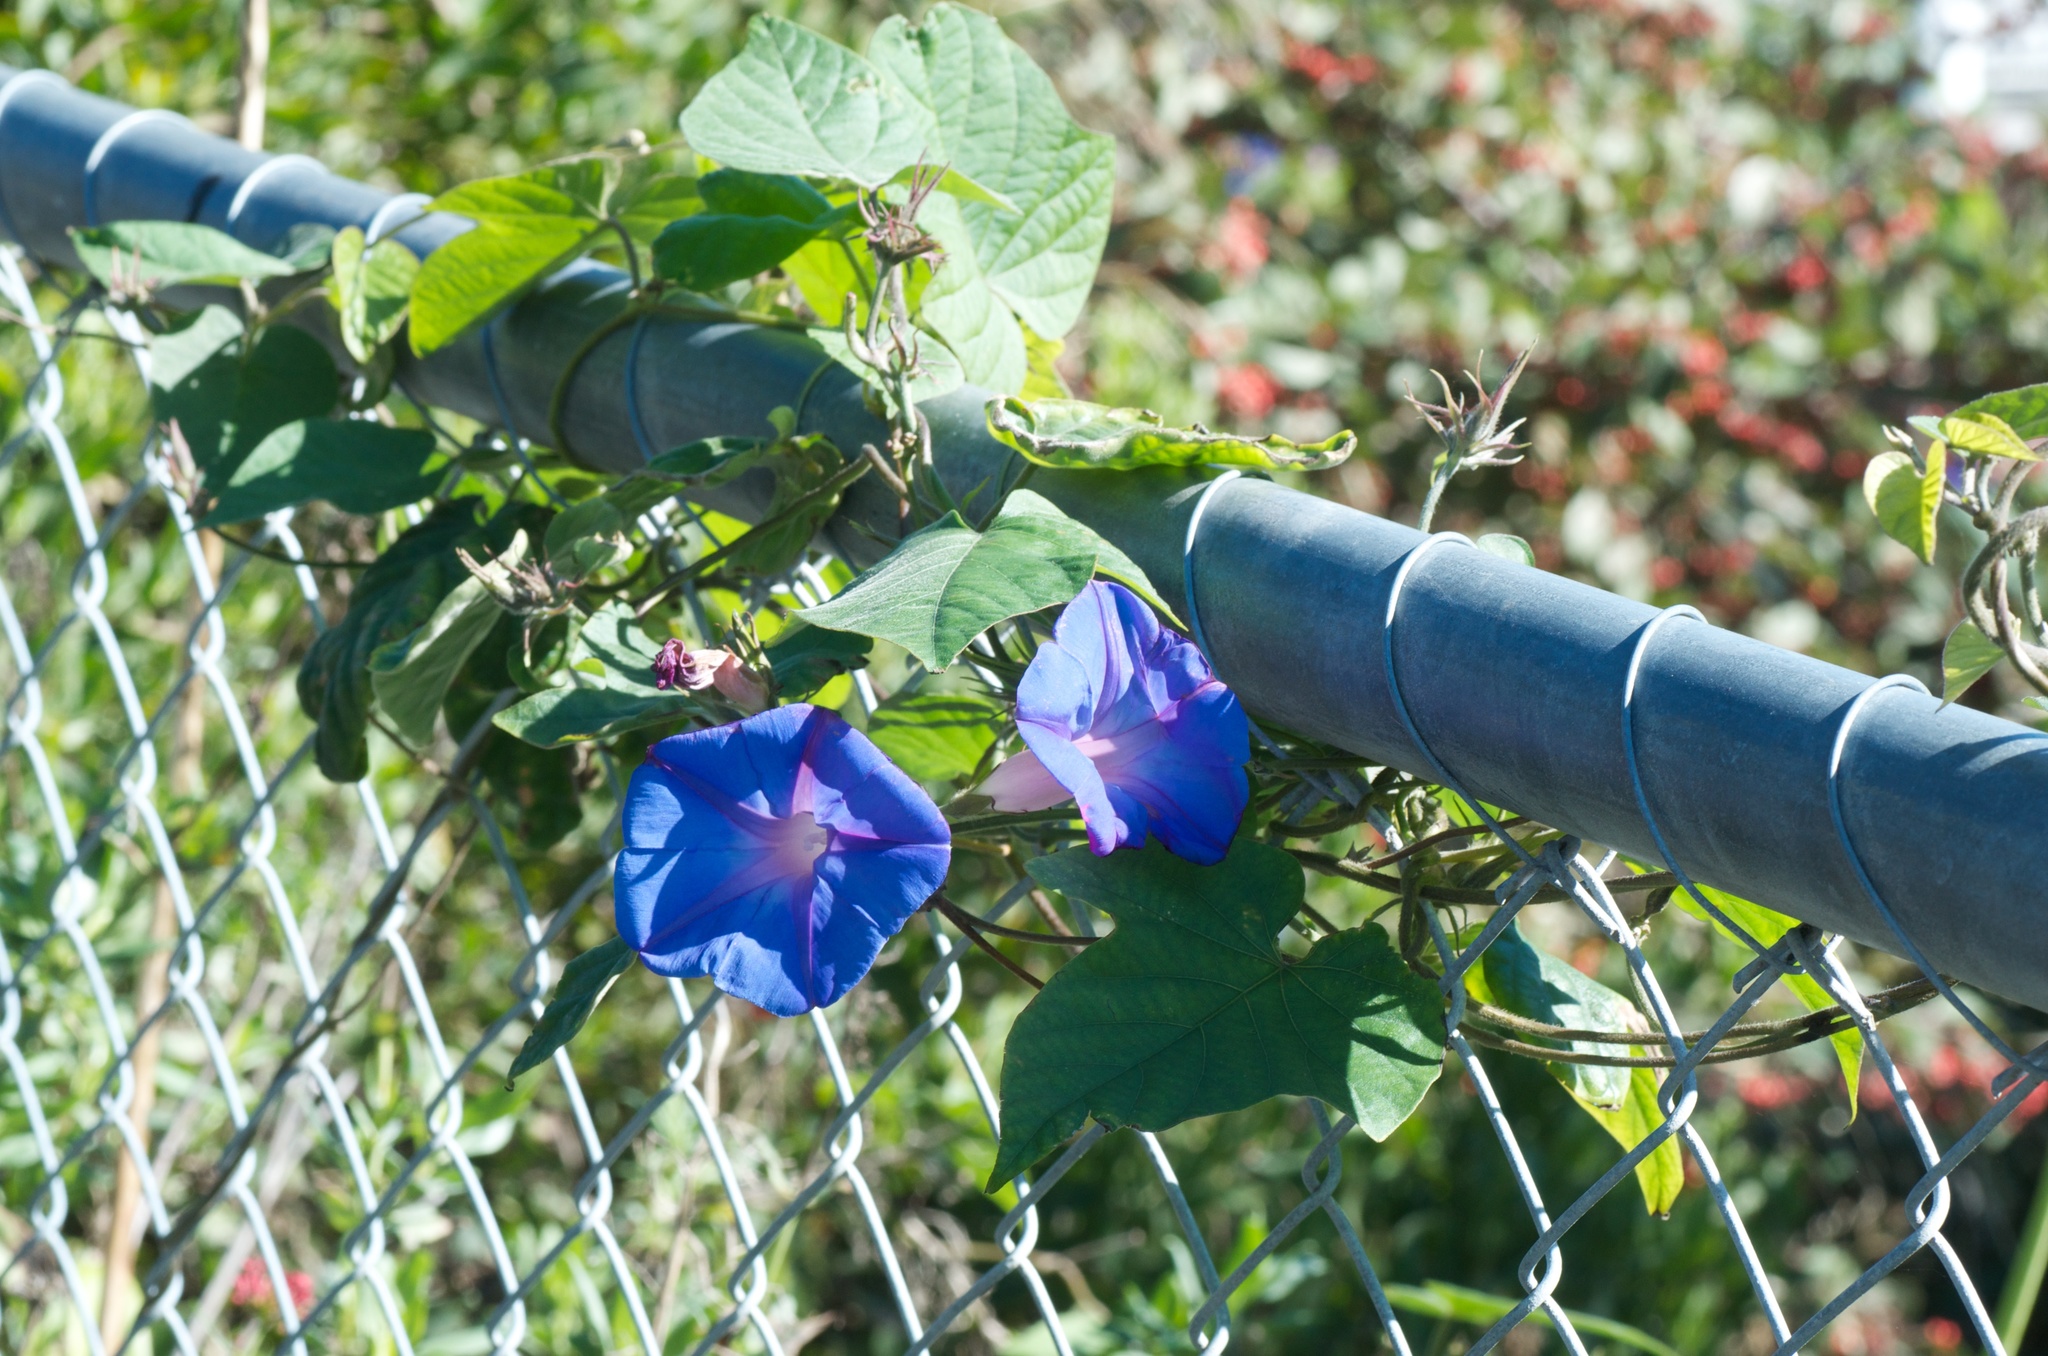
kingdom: Plantae
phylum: Tracheophyta
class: Magnoliopsida
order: Solanales
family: Convolvulaceae
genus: Ipomoea
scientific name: Ipomoea indica
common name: Blue dawnflower
